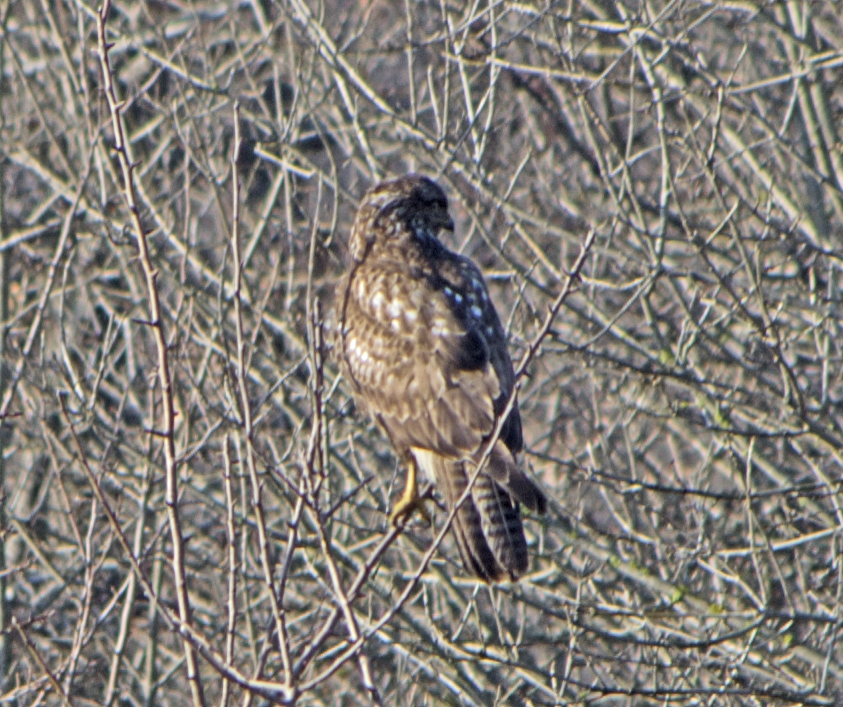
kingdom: Animalia
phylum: Chordata
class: Aves
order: Accipitriformes
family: Accipitridae
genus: Buteo
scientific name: Buteo buteo
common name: Common buzzard
